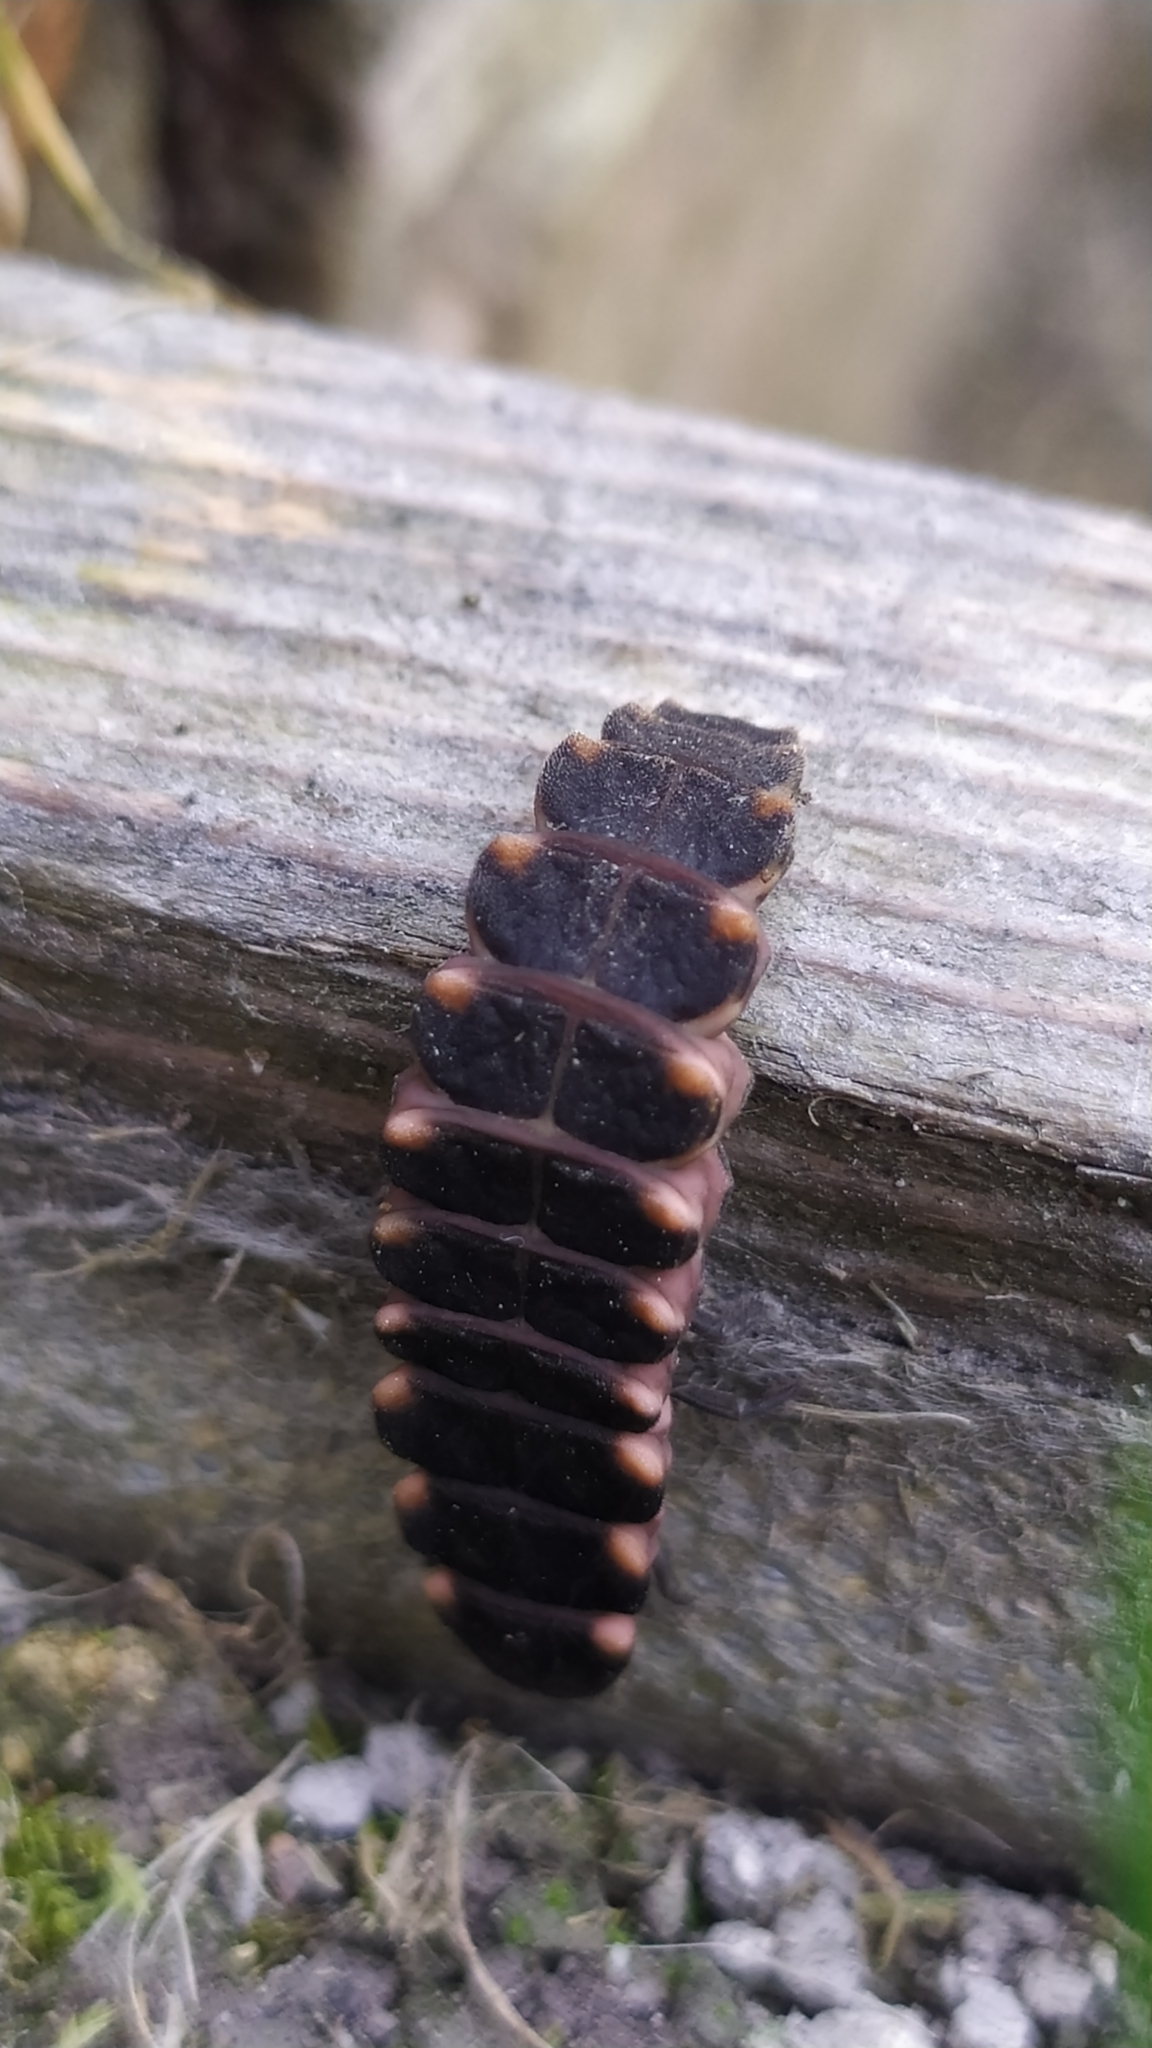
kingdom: Animalia
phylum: Arthropoda
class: Insecta
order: Coleoptera
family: Lampyridae
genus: Lampyris
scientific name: Lampyris noctiluca
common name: Glow-worm
